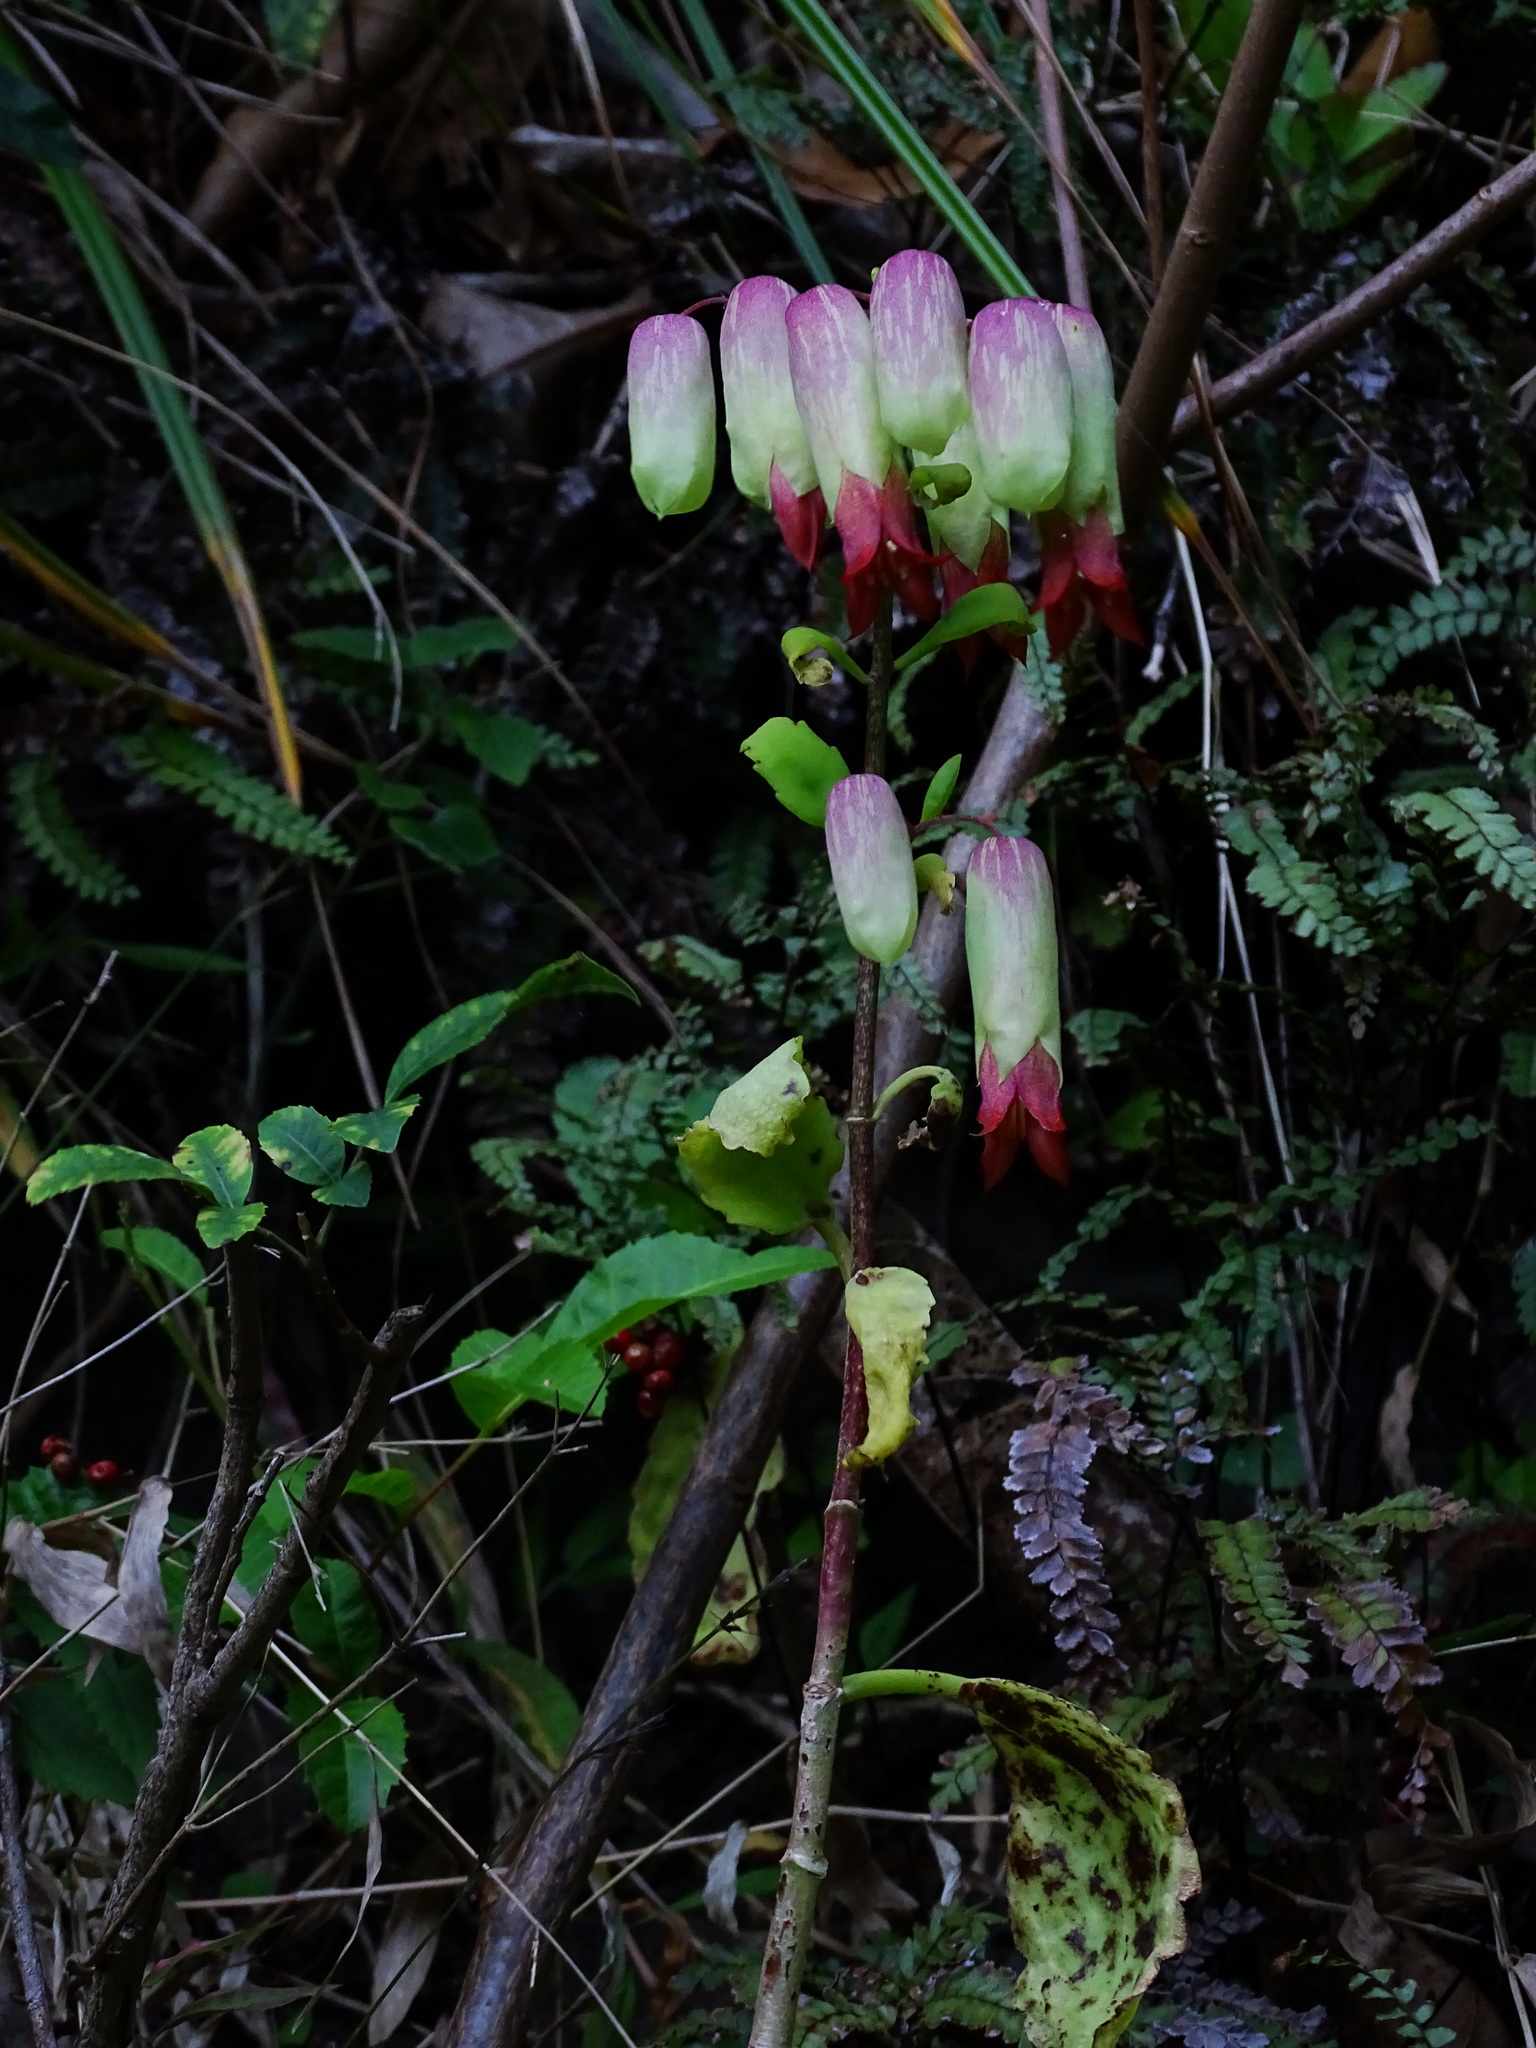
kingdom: Plantae
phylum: Tracheophyta
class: Magnoliopsida
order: Saxifragales
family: Crassulaceae
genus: Kalanchoe
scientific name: Kalanchoe pinnata
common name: Cathedral bells
